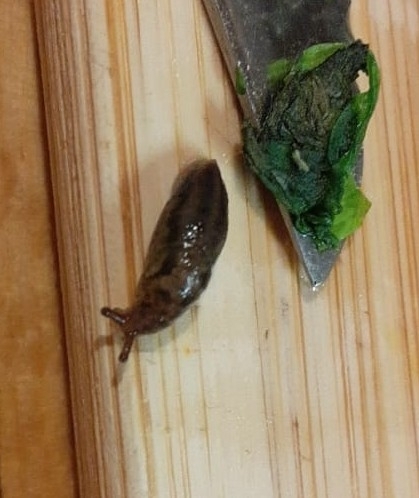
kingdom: Animalia
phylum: Mollusca
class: Gastropoda
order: Stylommatophora
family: Limacidae
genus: Limax
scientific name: Limax maximus
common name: Great grey slug
